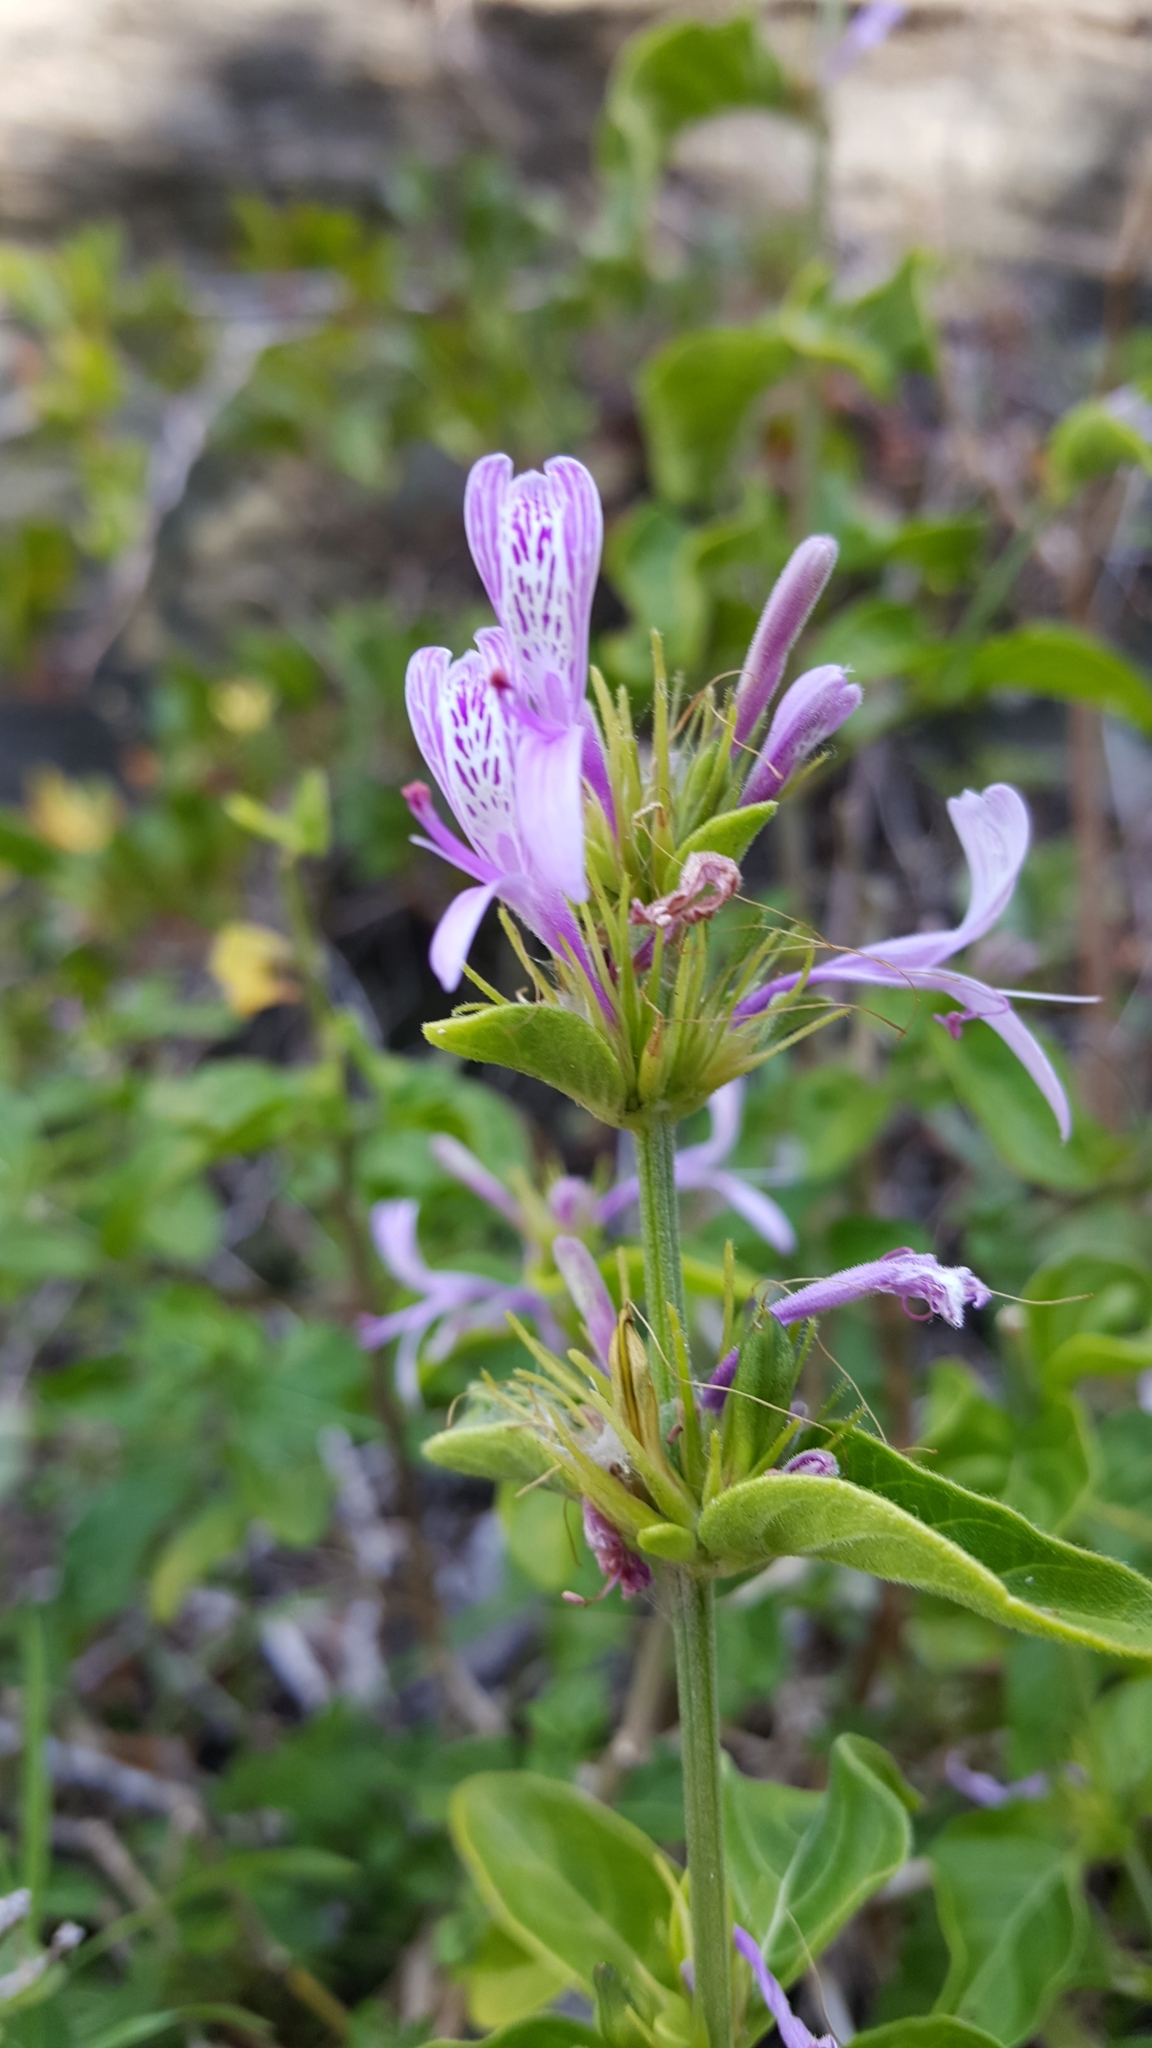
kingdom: Plantae
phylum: Tracheophyta
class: Magnoliopsida
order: Lamiales
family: Acanthaceae
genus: Hypoestes
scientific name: Hypoestes aristata
